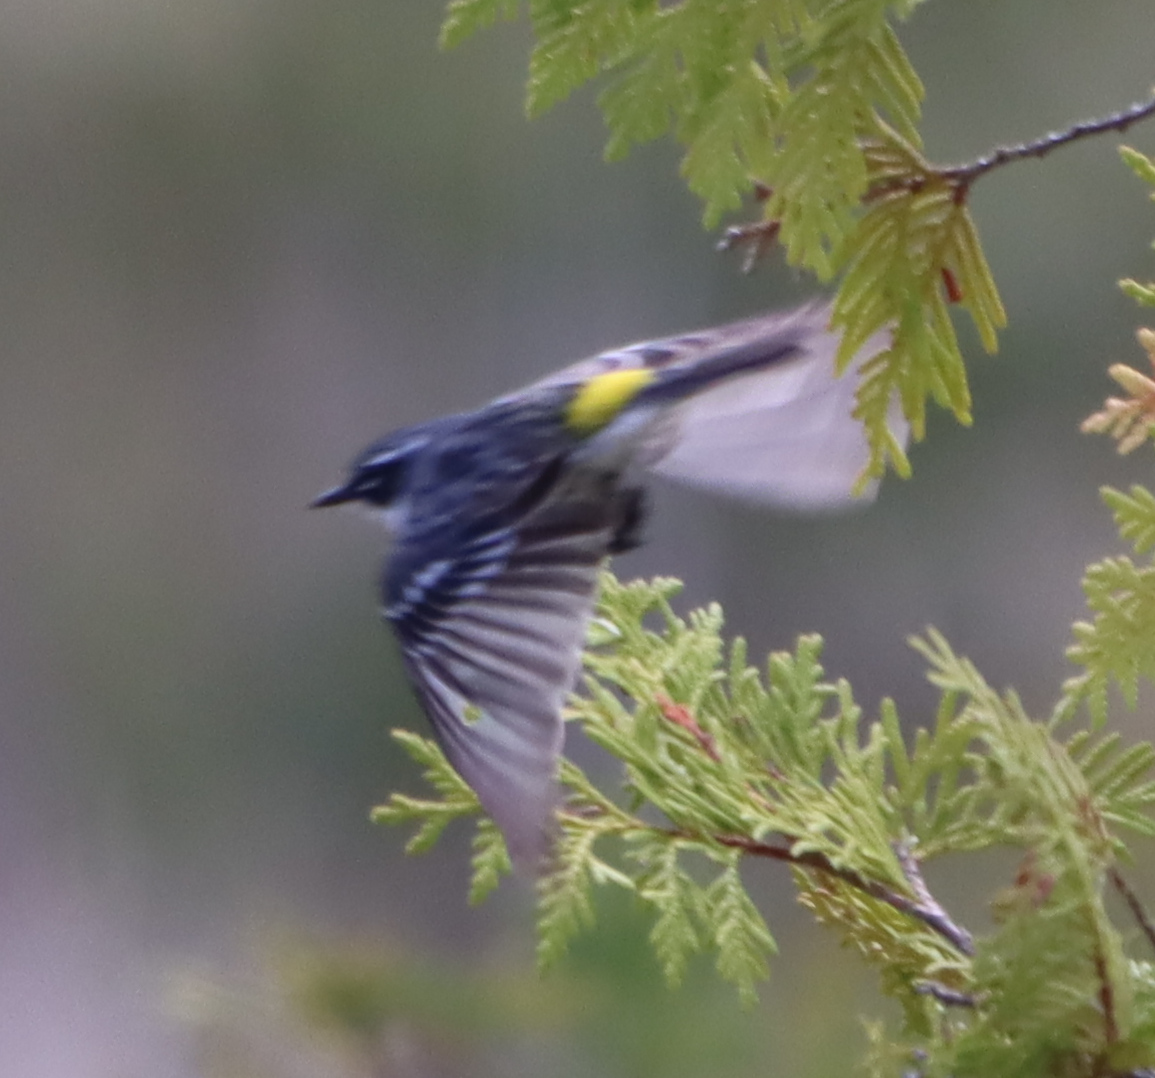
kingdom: Animalia
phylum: Chordata
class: Aves
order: Passeriformes
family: Parulidae
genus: Setophaga
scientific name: Setophaga coronata
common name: Myrtle warbler
